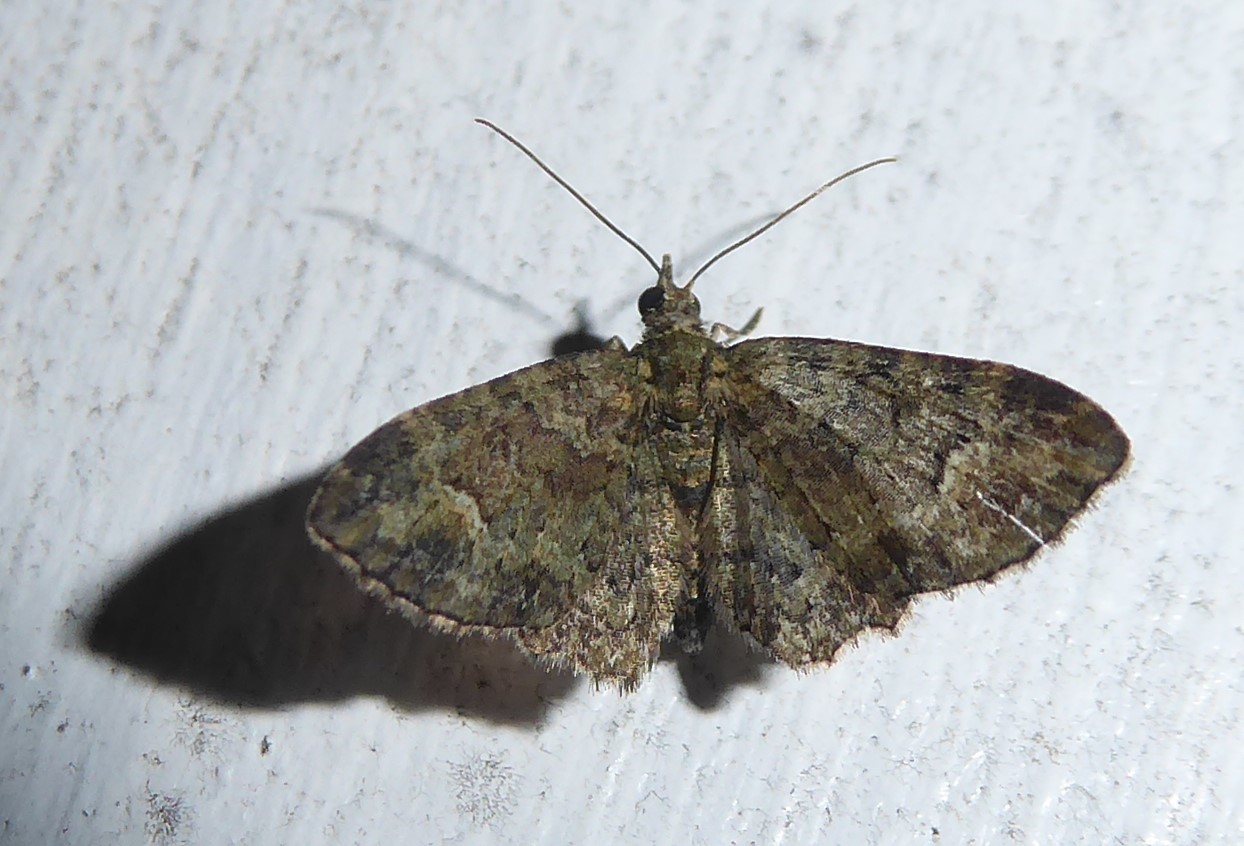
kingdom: Animalia
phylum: Arthropoda
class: Insecta
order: Lepidoptera
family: Geometridae
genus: Pasiphilodes
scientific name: Pasiphilodes testulata
